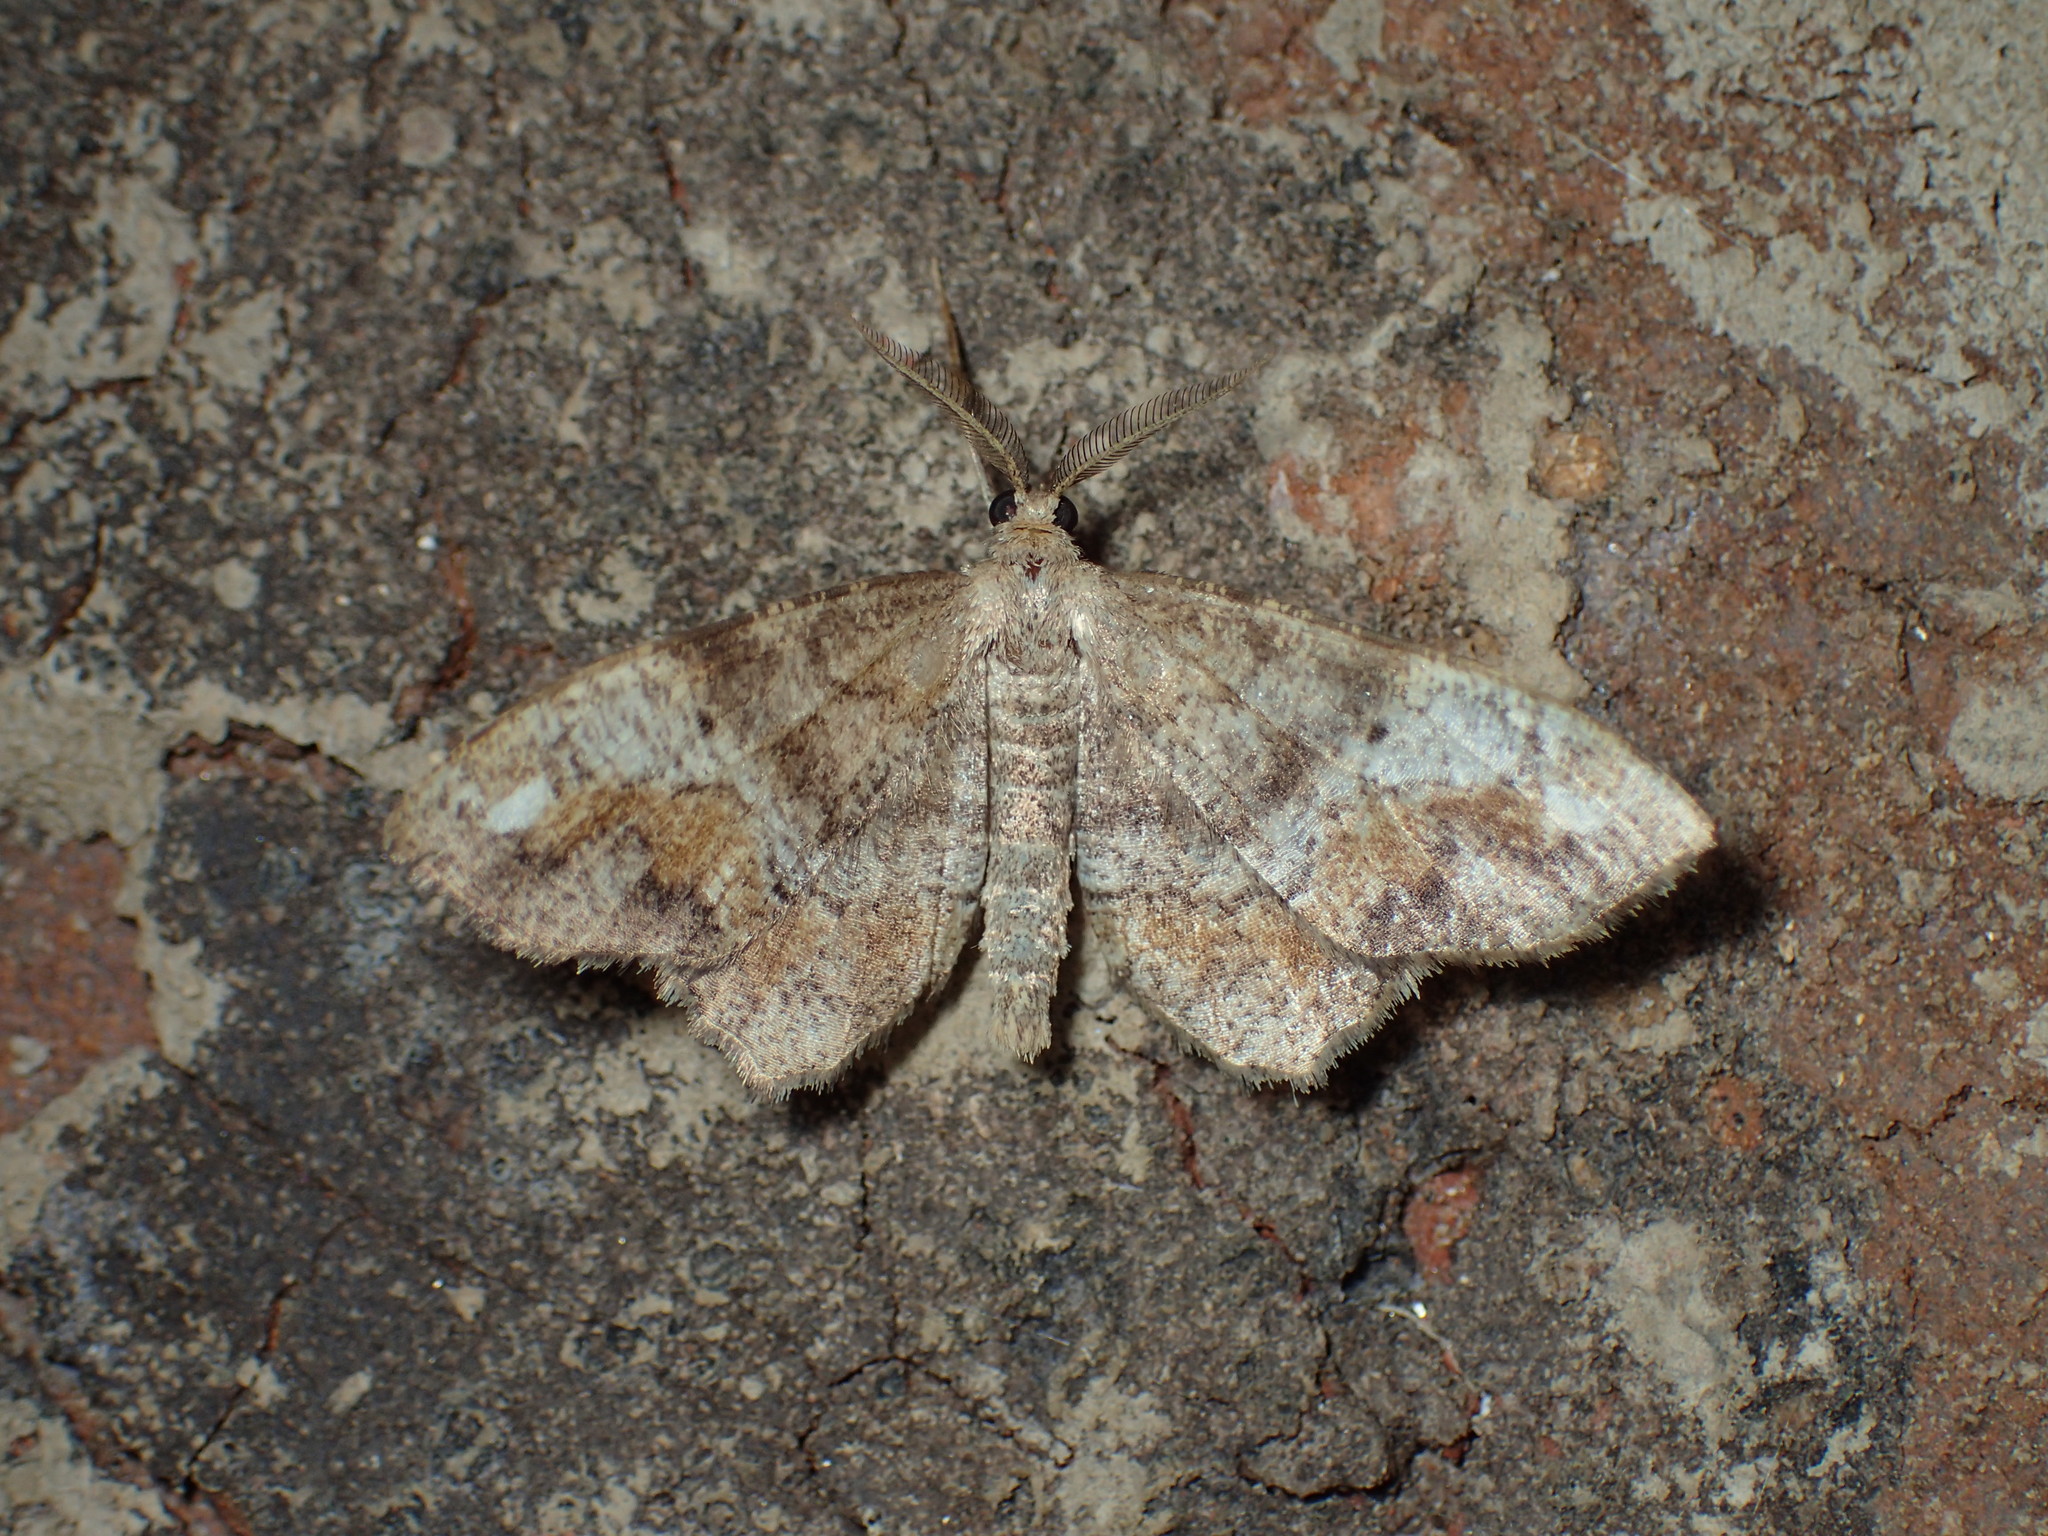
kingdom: Animalia
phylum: Arthropoda
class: Insecta
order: Lepidoptera
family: Geometridae
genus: Hypagyrtis
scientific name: Hypagyrtis unipunctata
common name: One-spotted variant
